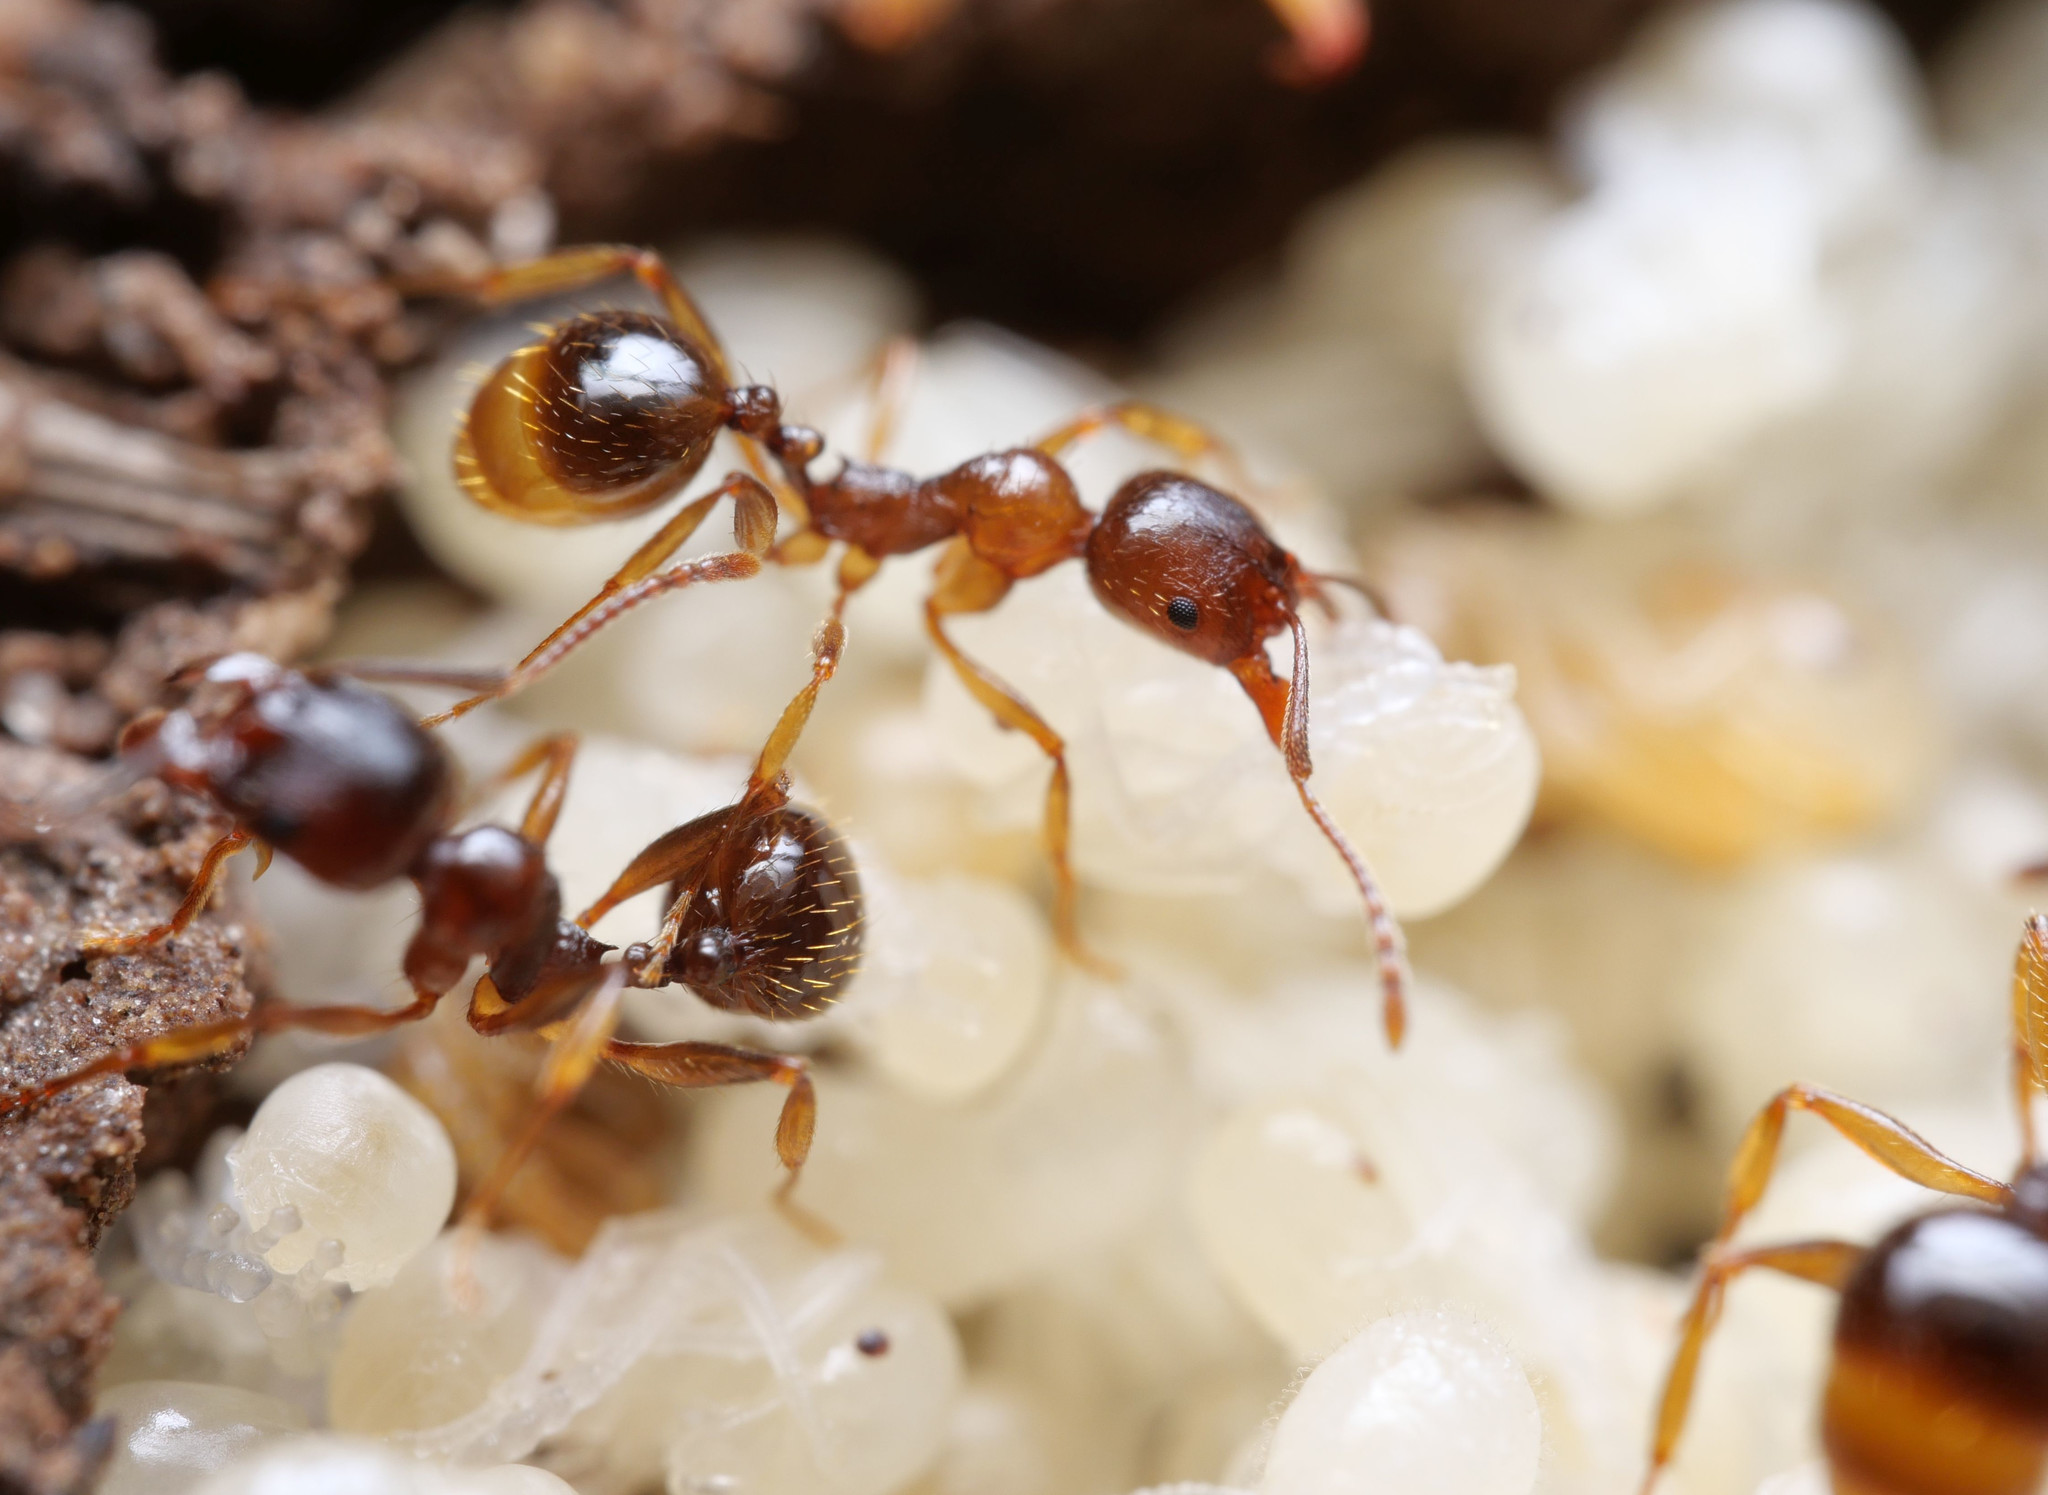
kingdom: Animalia
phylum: Arthropoda
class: Insecta
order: Hymenoptera
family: Formicidae
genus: Aphaenogaster
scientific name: Aphaenogaster subterranea
